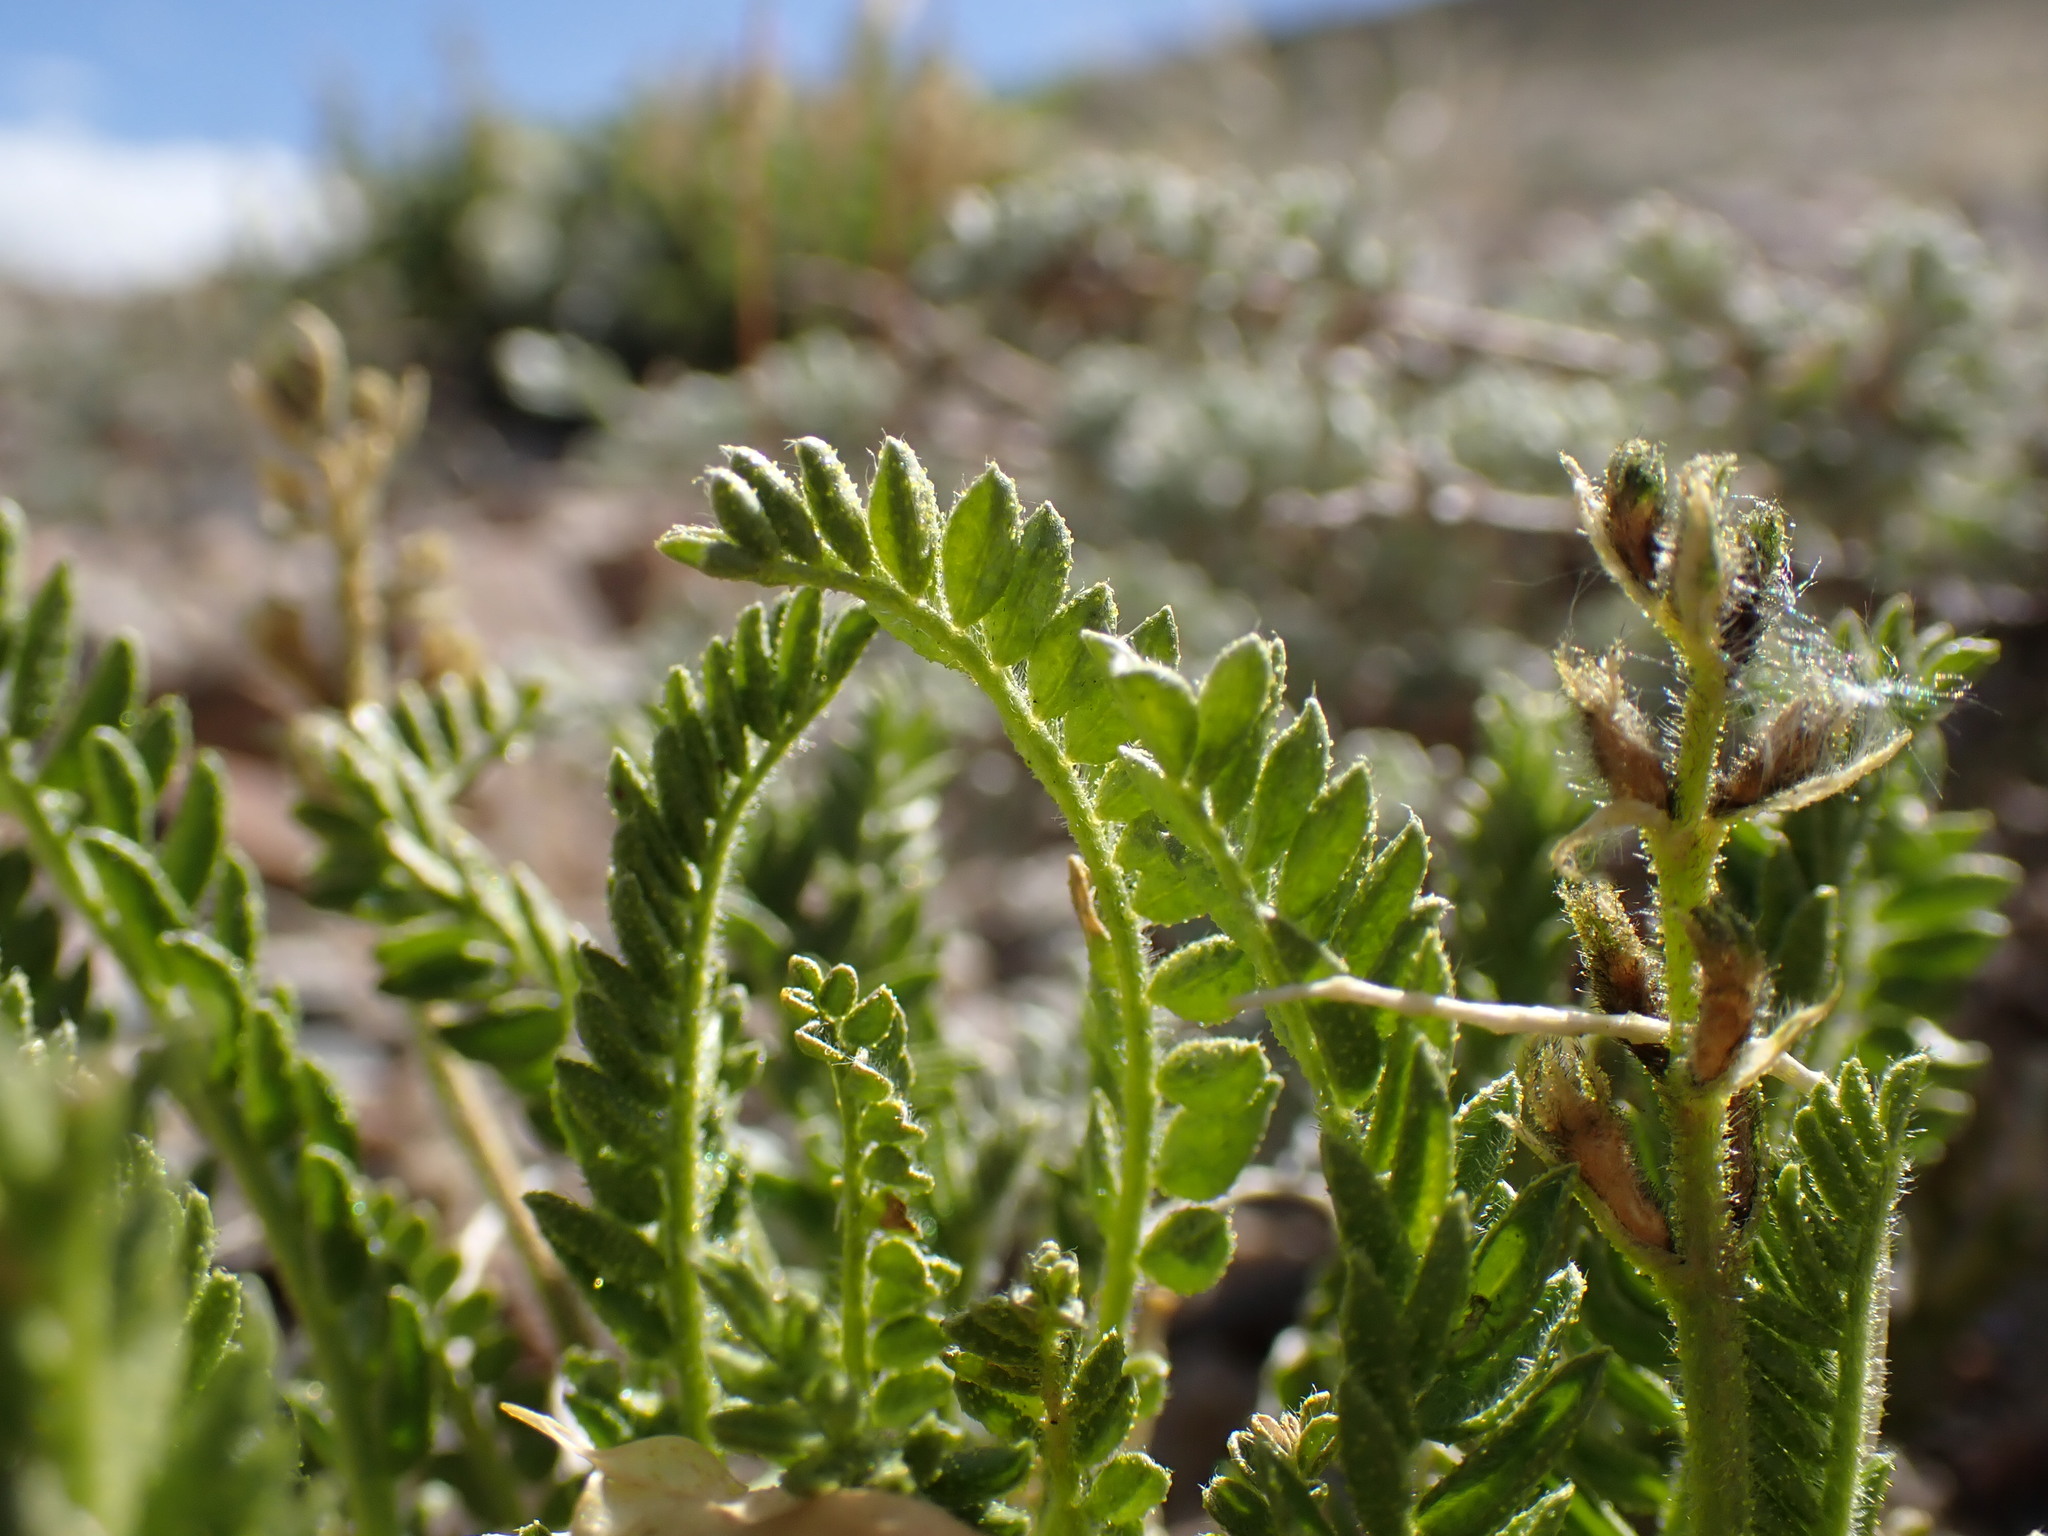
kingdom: Plantae
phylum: Tracheophyta
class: Magnoliopsida
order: Fabales
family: Fabaceae
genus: Oxytropis
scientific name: Oxytropis borealis
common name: Boreal locoweed
